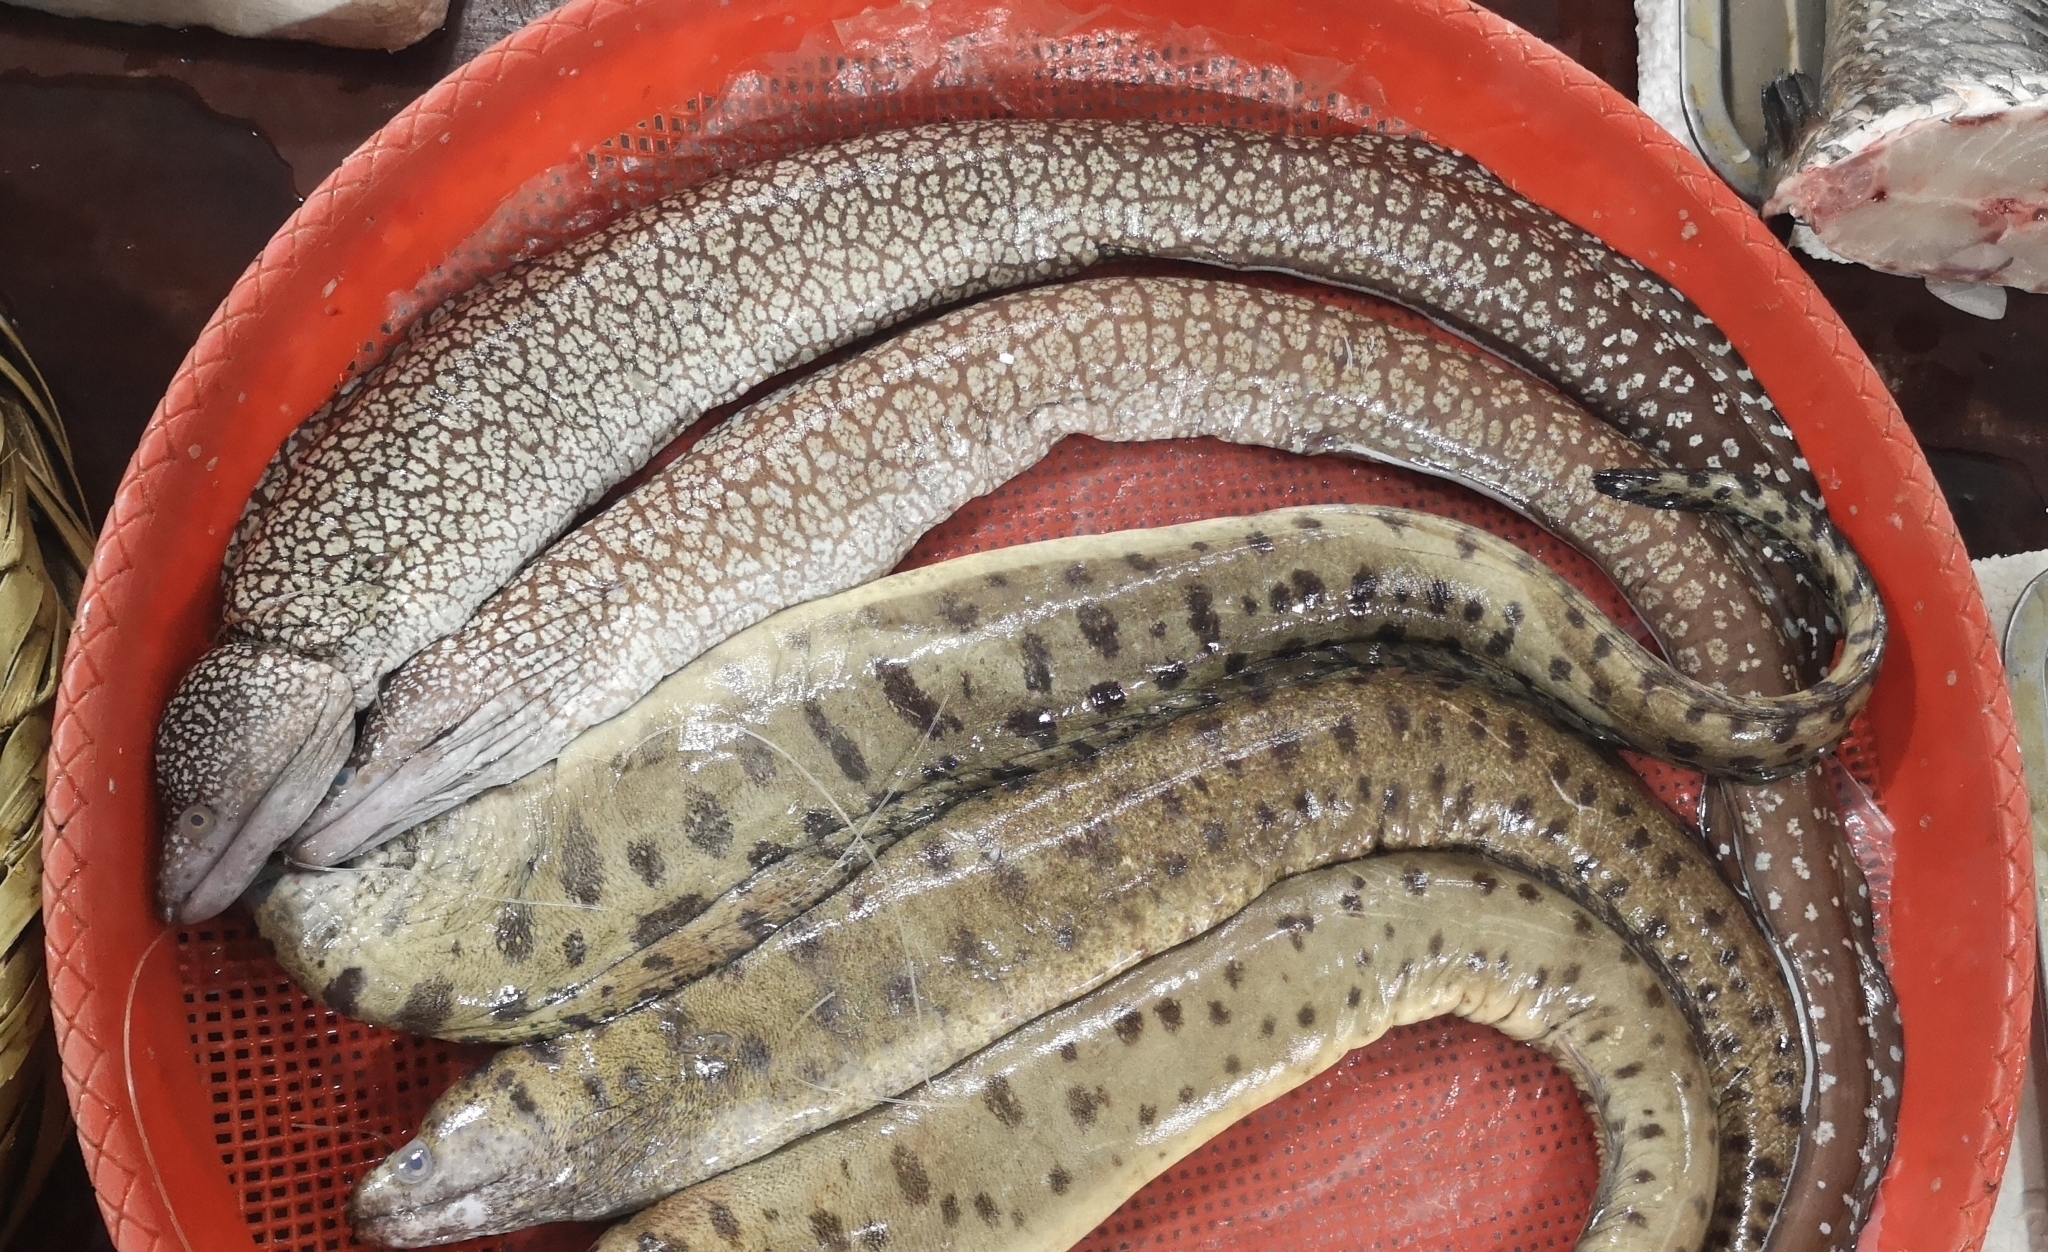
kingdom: Animalia
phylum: Chordata
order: Anguilliformes
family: Muraenidae
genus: Gymnothorax
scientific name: Gymnothorax niphostigmus
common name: Snowflake-patched moray
